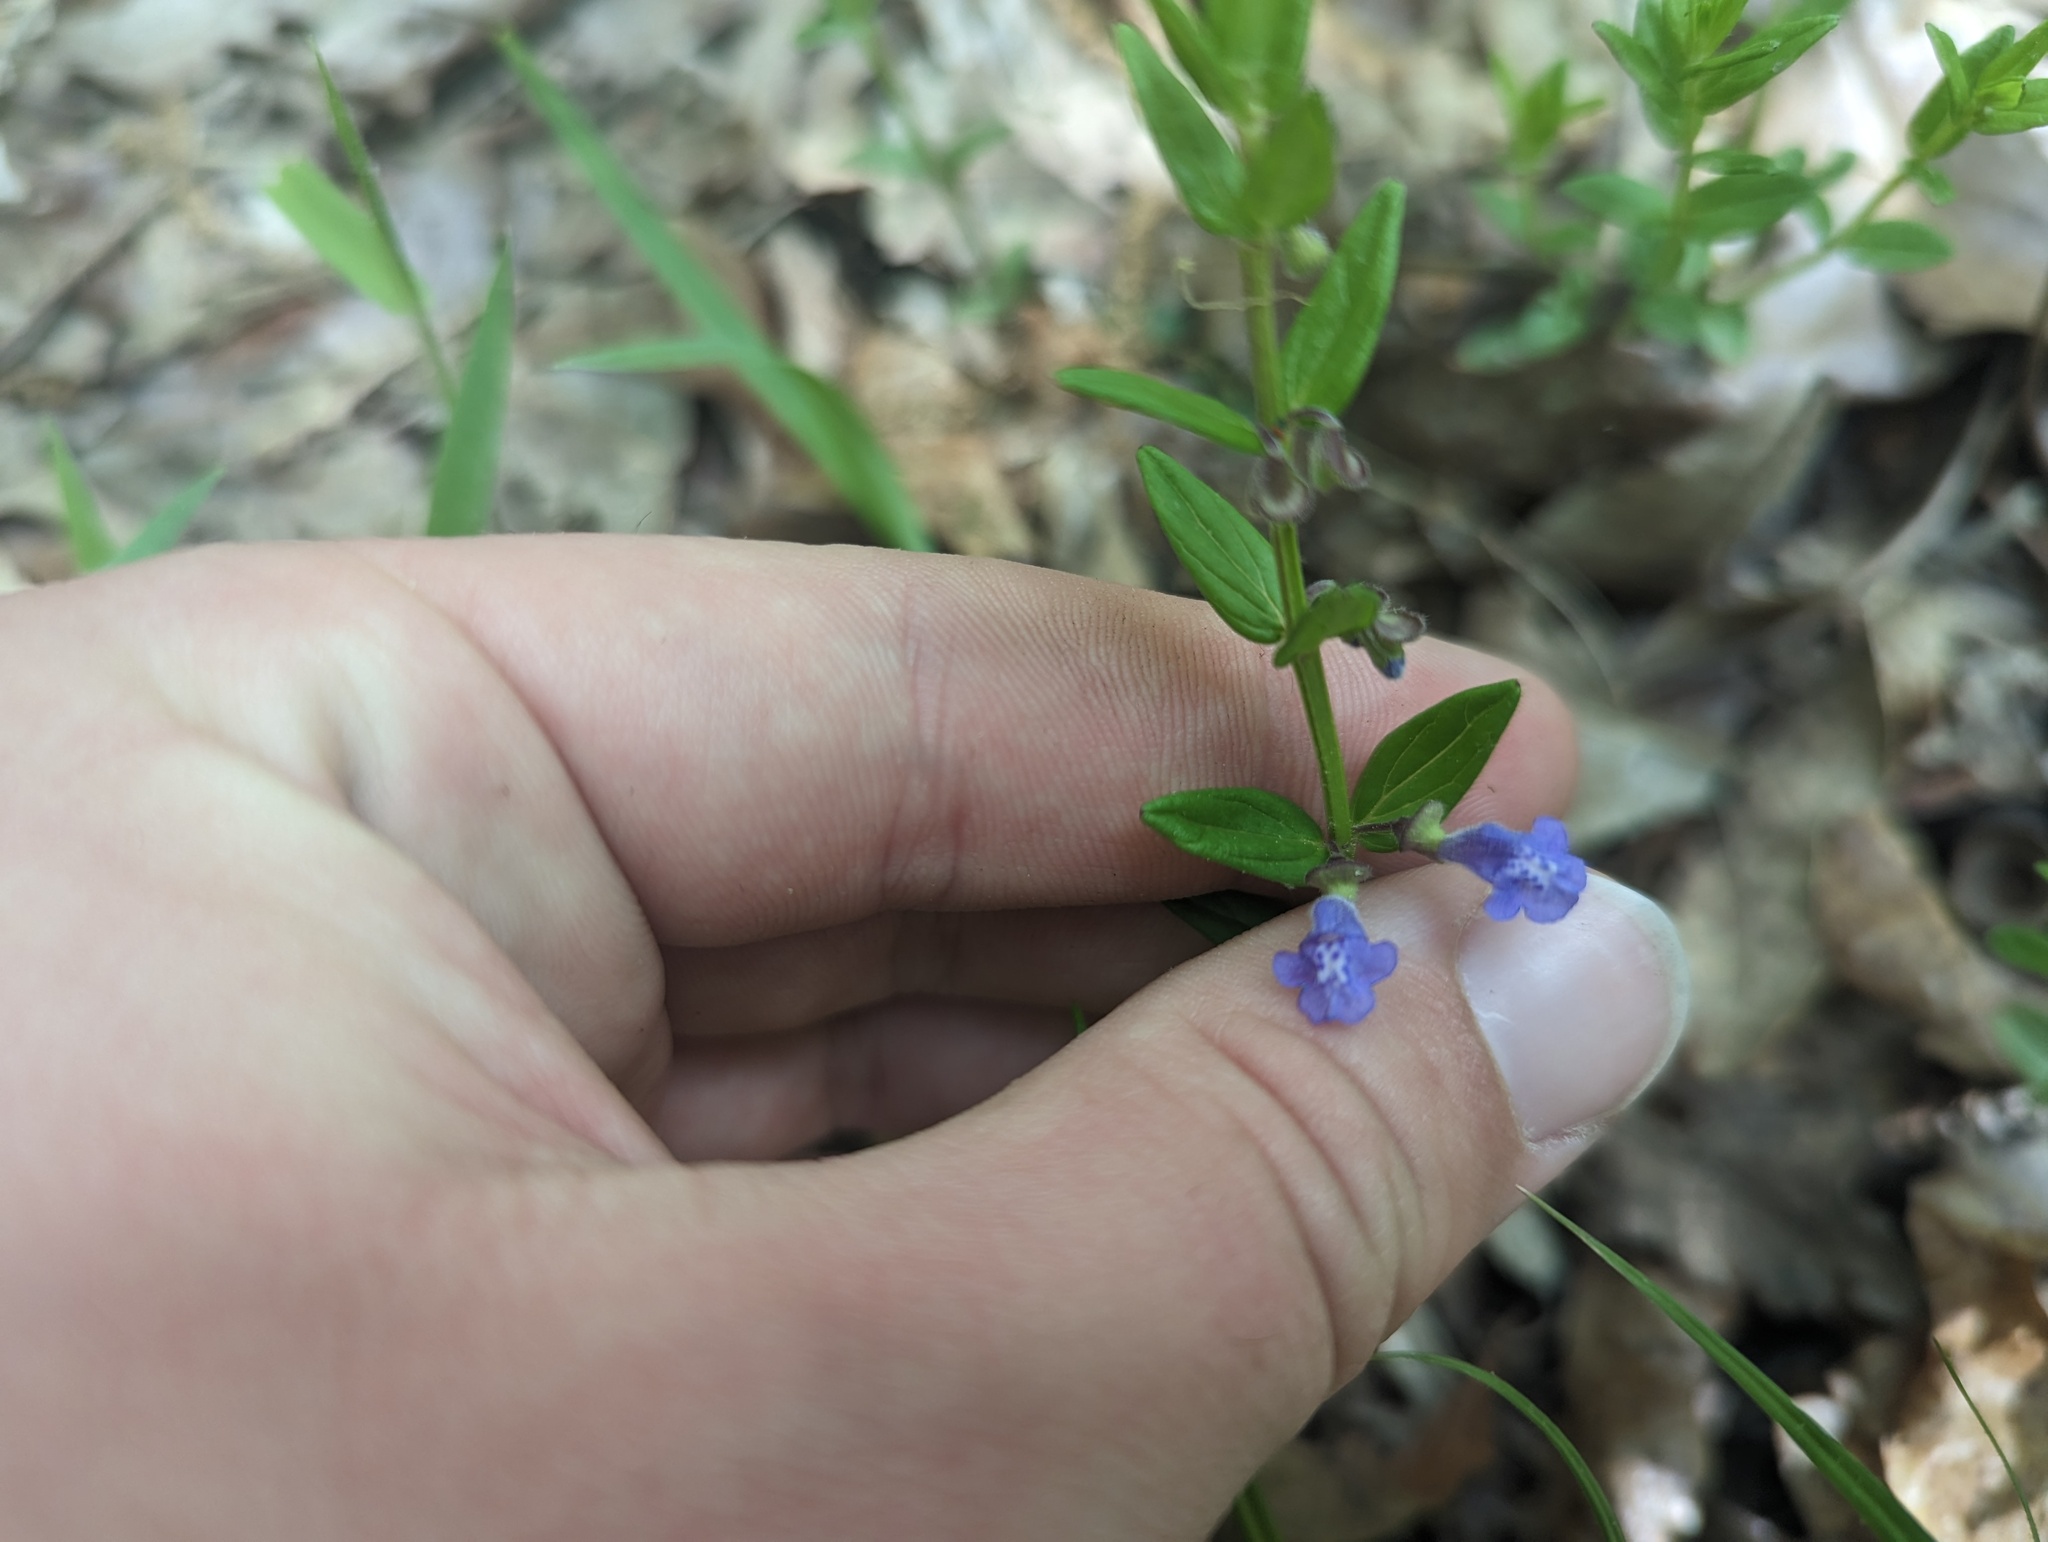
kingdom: Plantae
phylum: Tracheophyta
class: Magnoliopsida
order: Lamiales
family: Lamiaceae
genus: Scutellaria
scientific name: Scutellaria parvula
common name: Little scullcap
